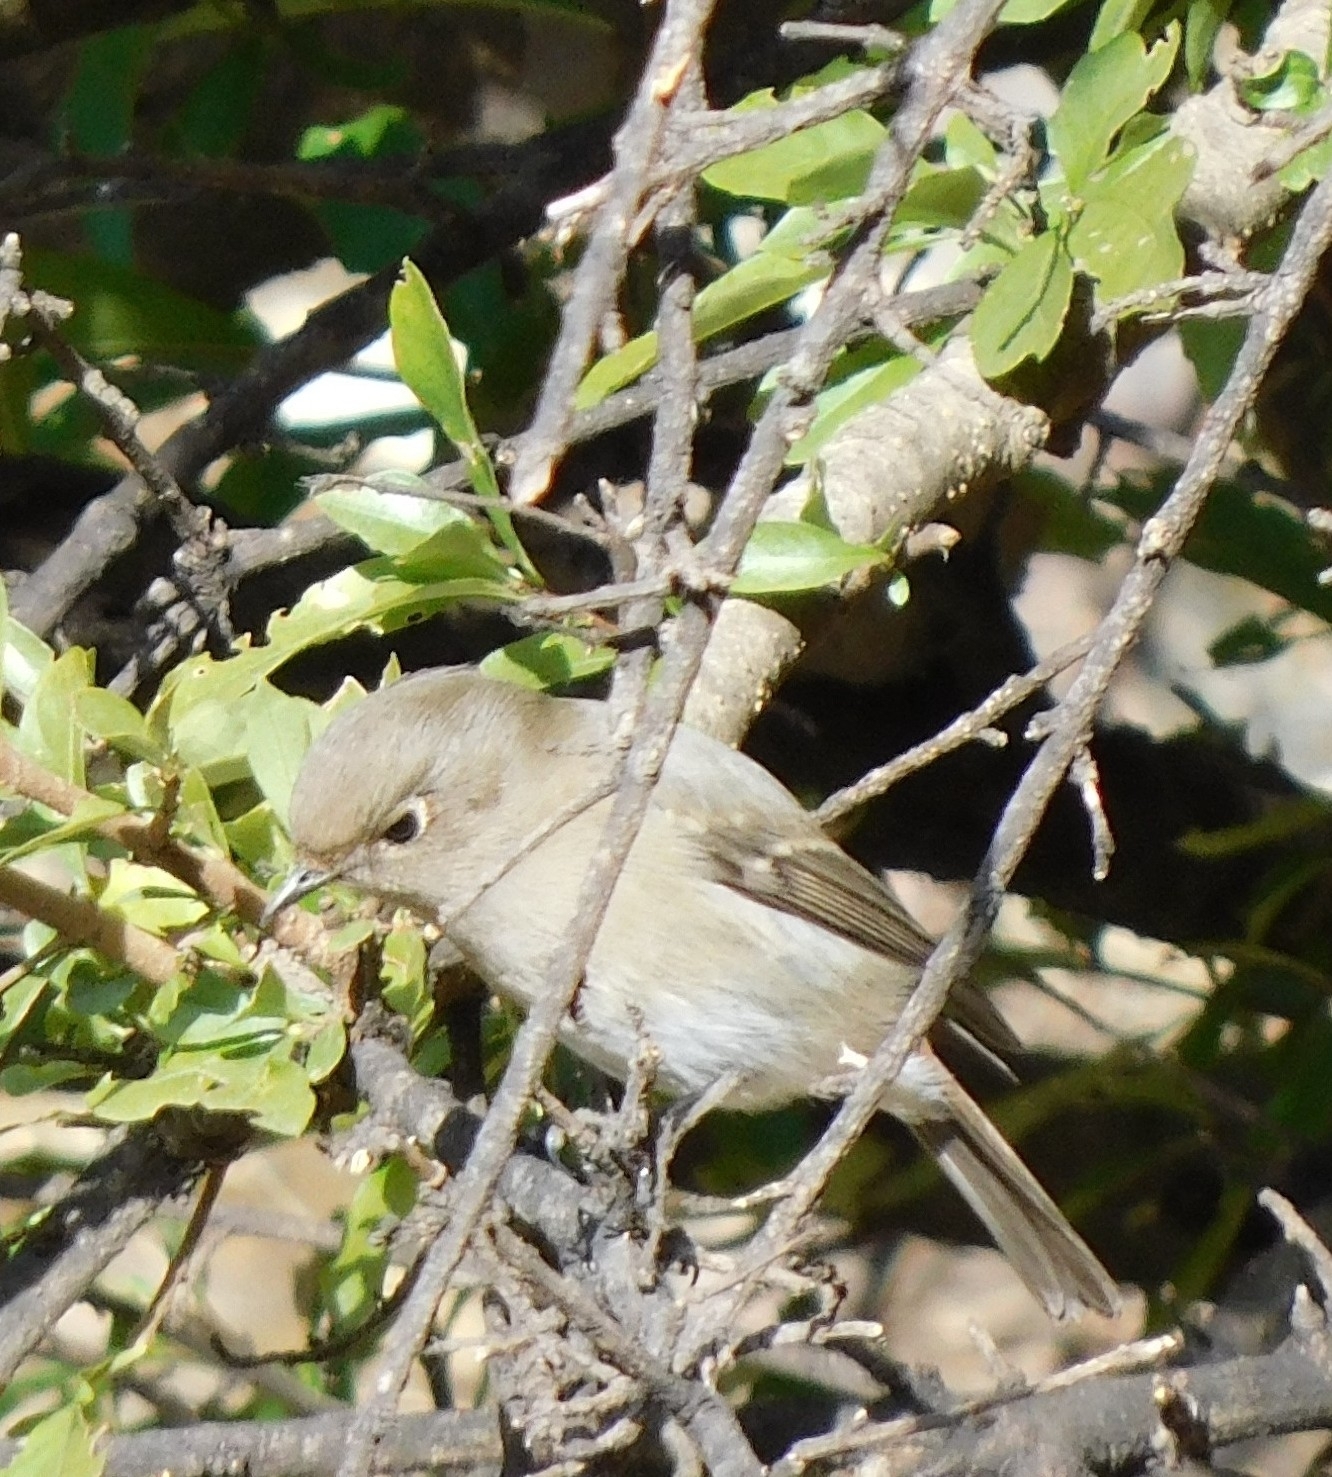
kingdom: Animalia
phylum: Chordata
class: Aves
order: Passeriformes
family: Muscicapidae
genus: Phoenicurus
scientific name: Phoenicurus coeruleocephala
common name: Blue-capped redstart
